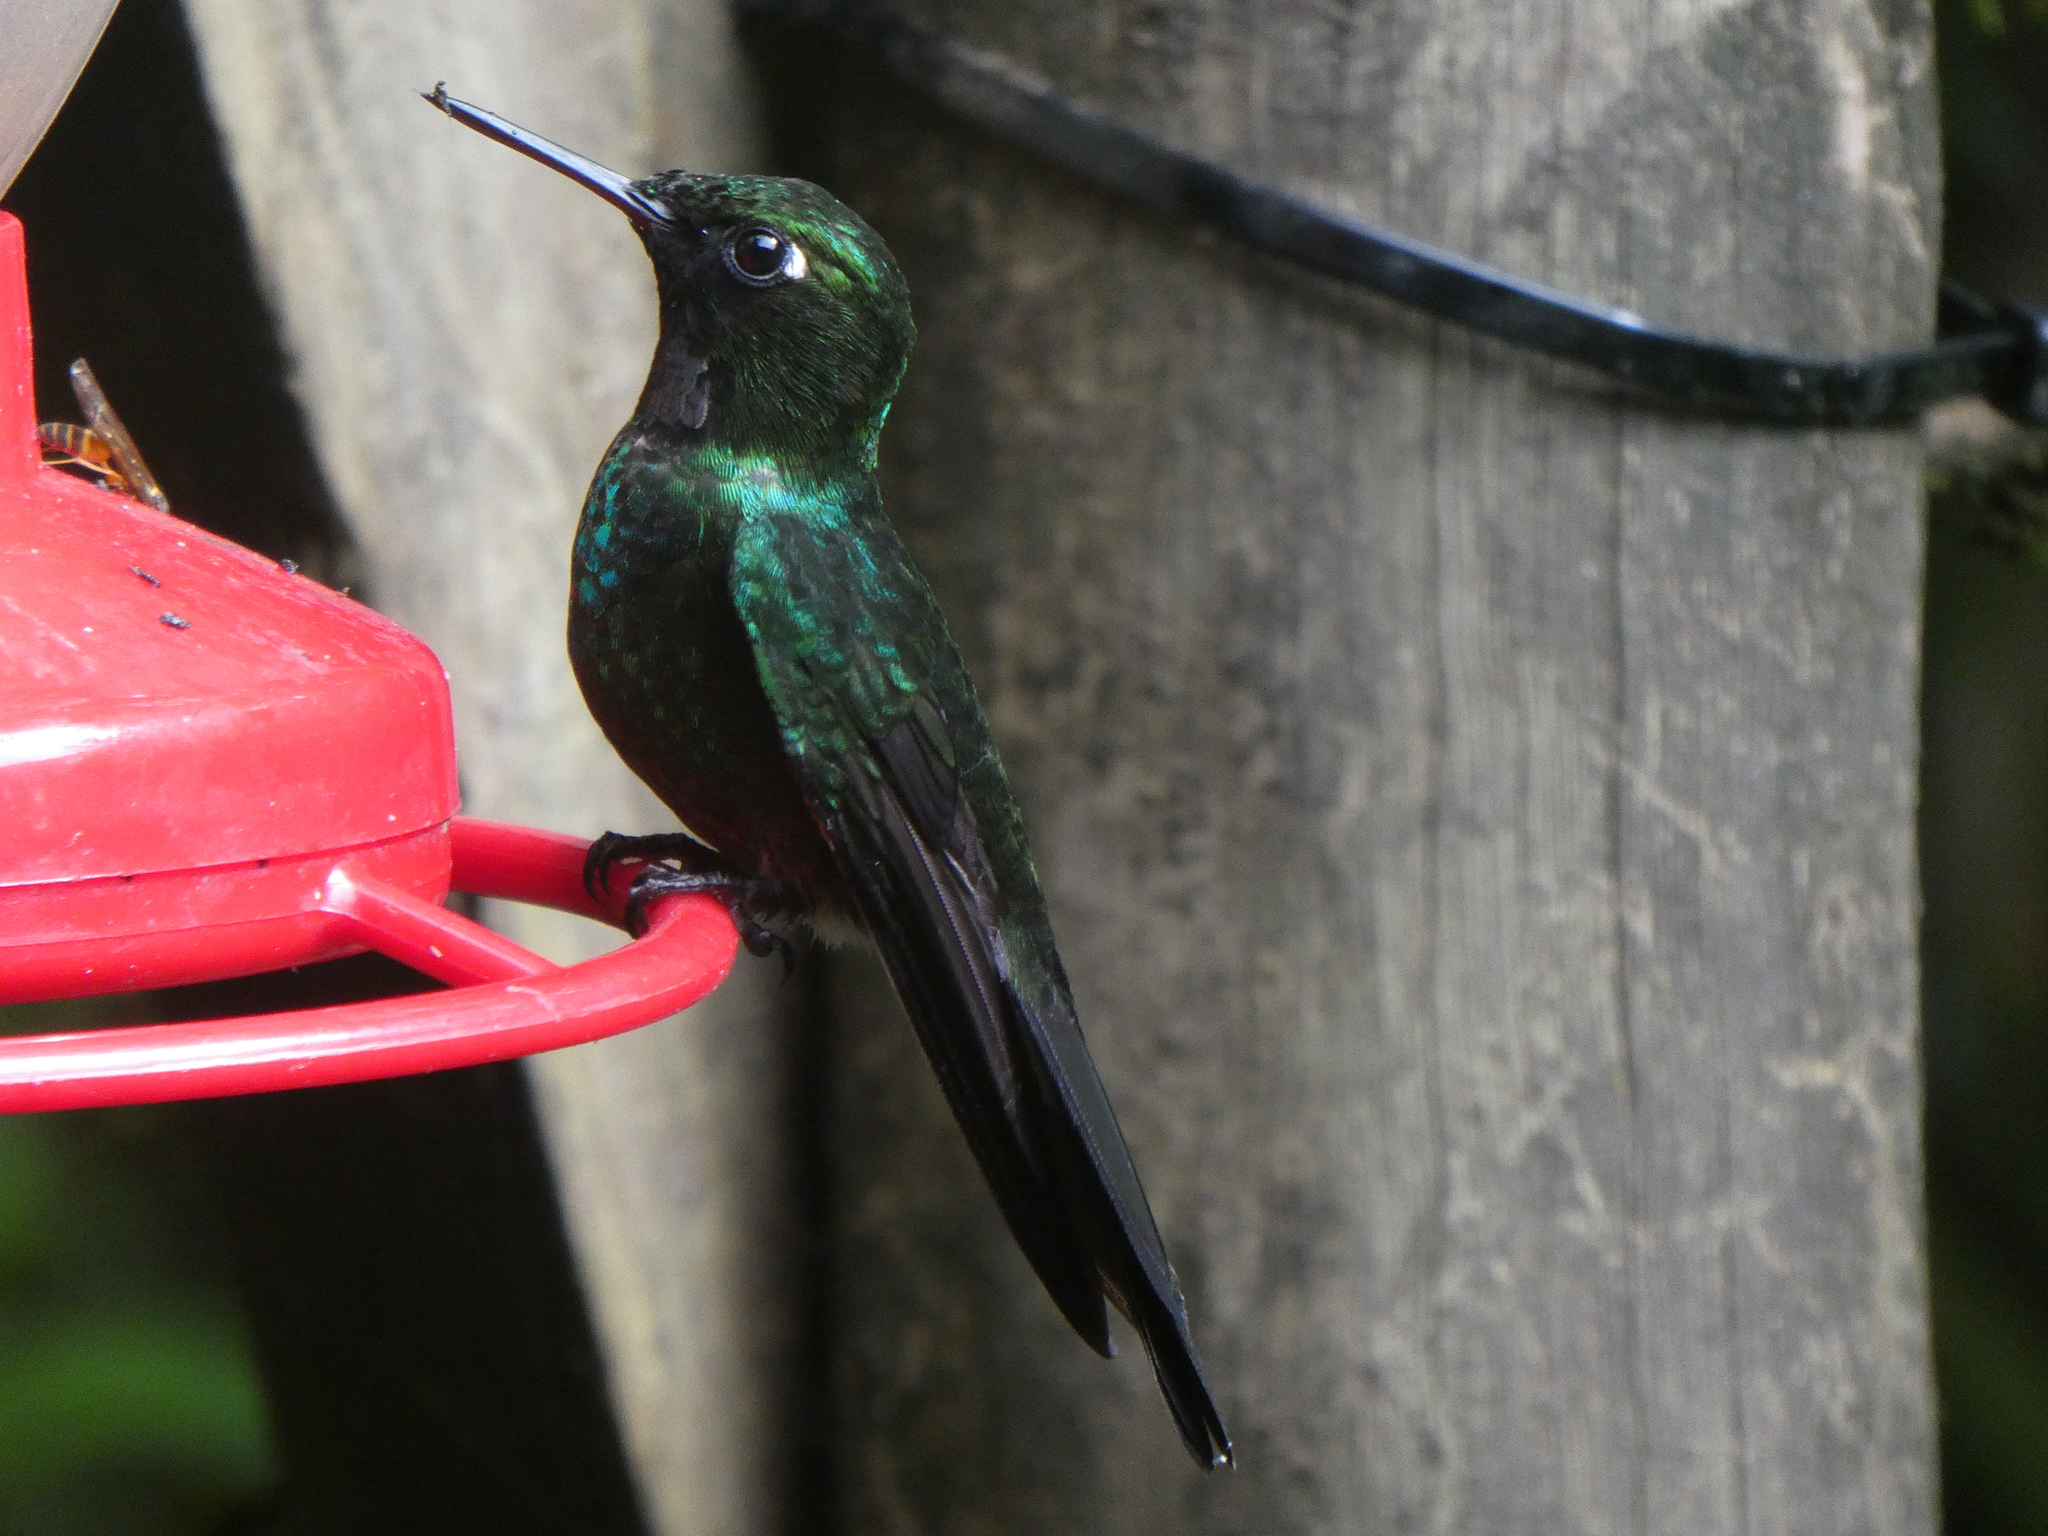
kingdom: Animalia
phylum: Chordata
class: Aves
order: Apodiformes
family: Trochilidae
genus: Heliangelus
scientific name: Heliangelus exortis
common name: Tourmaline sunangel
